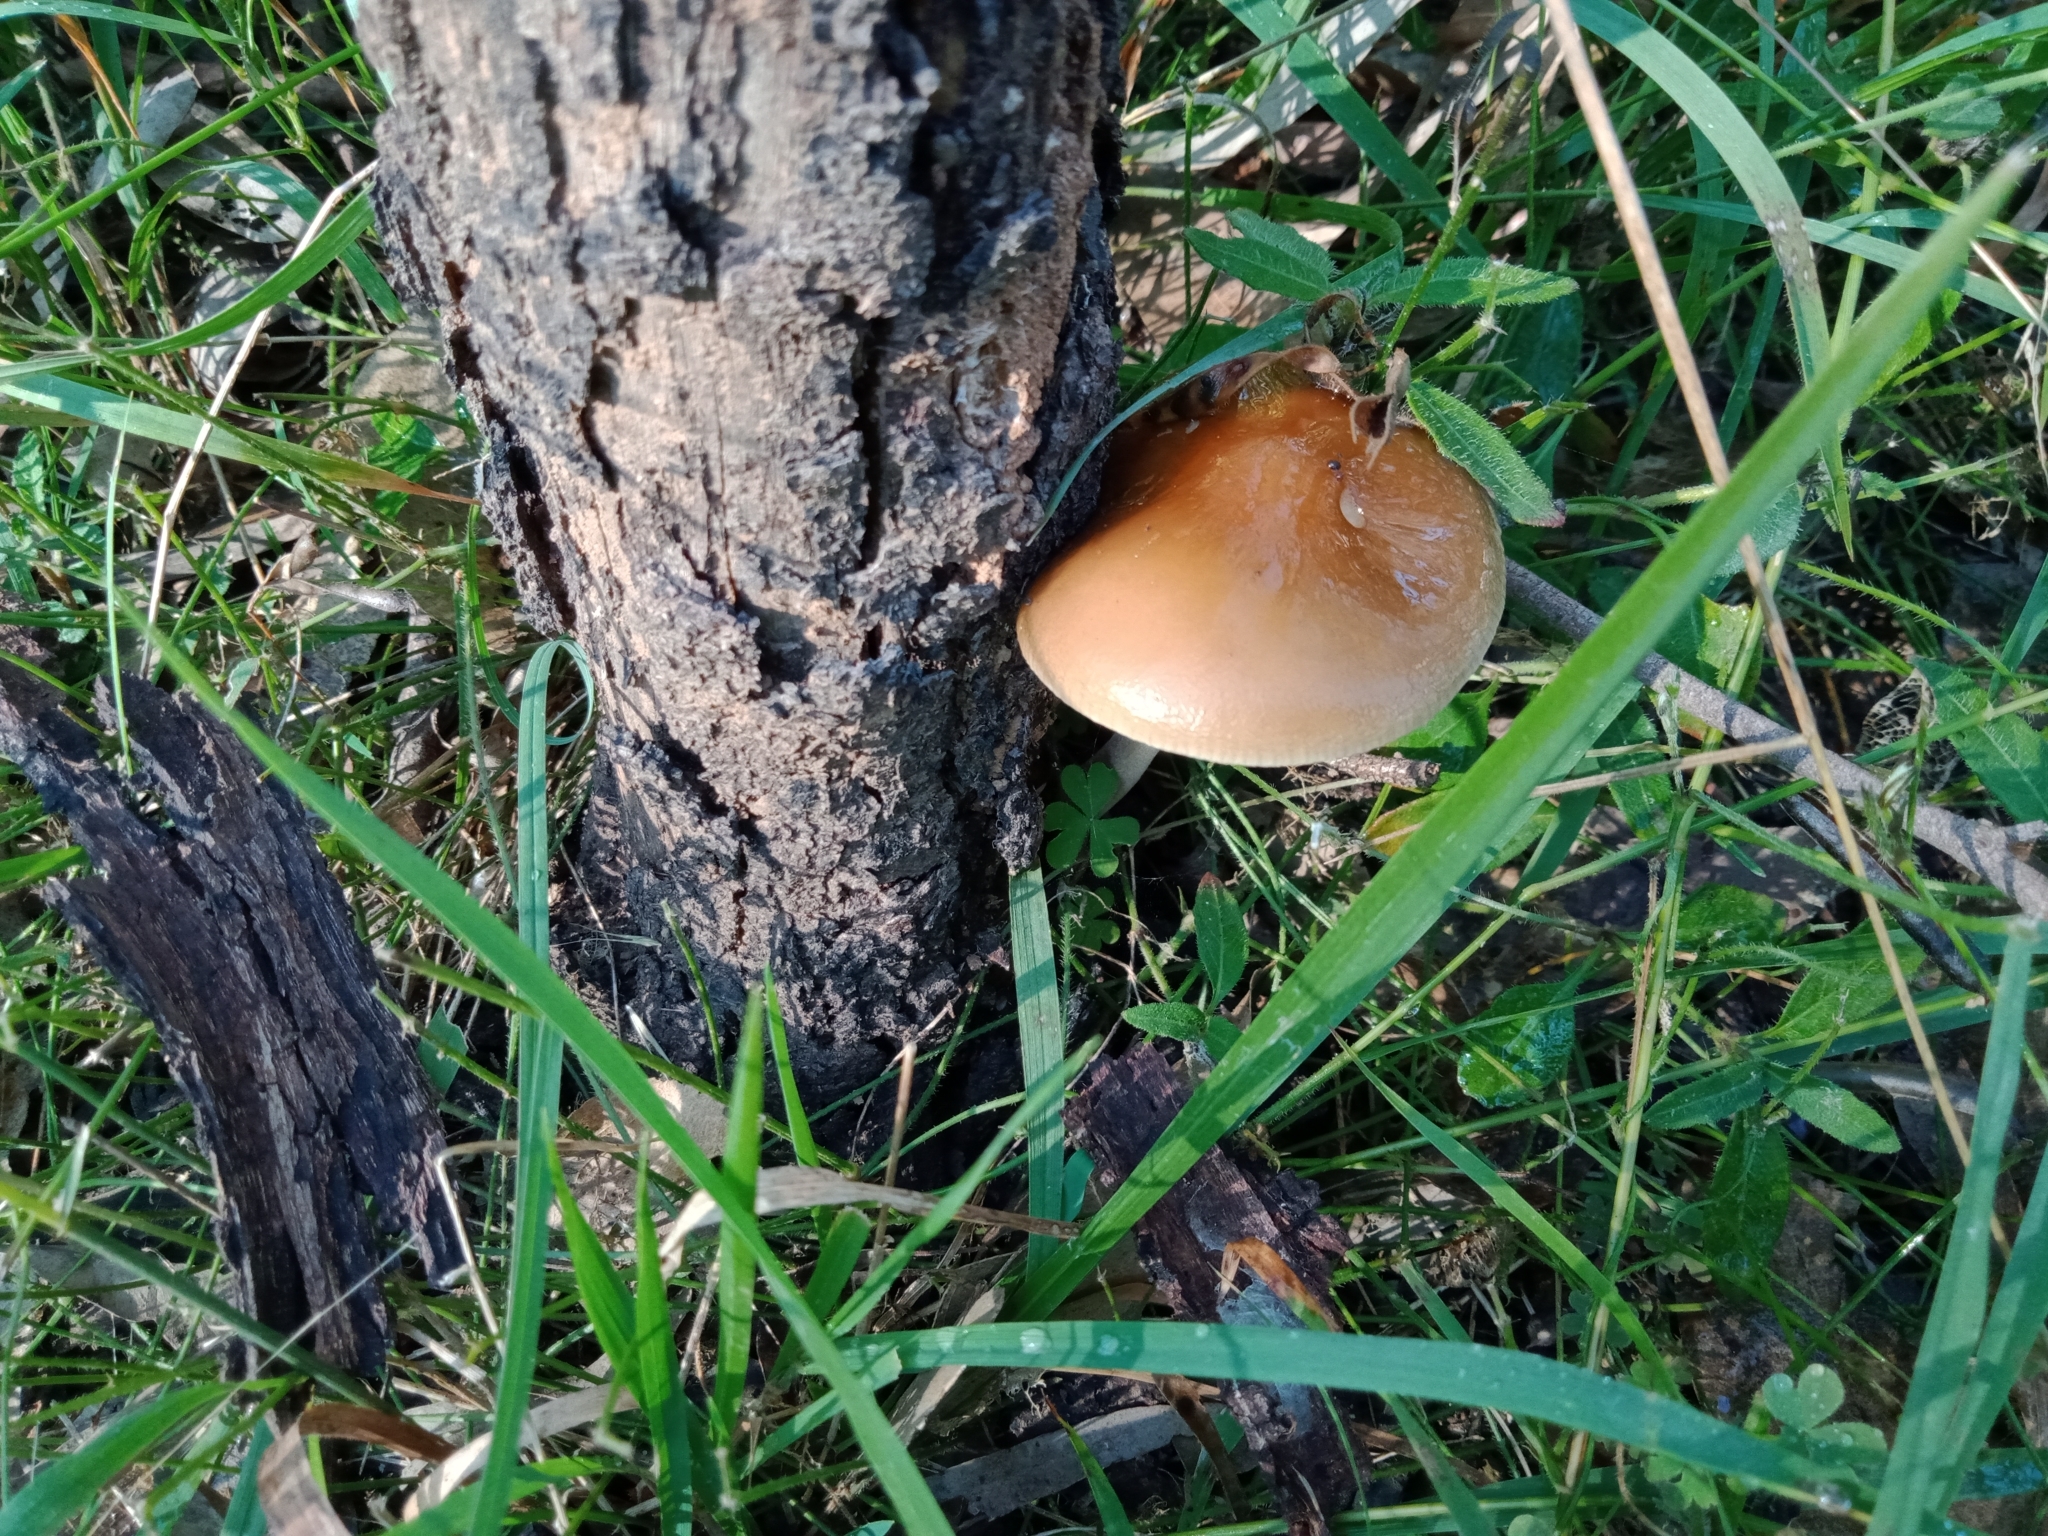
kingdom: Fungi
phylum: Basidiomycota
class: Agaricomycetes
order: Agaricales
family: Physalacriaceae
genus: Hymenopellis
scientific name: Hymenopellis gigaspora
